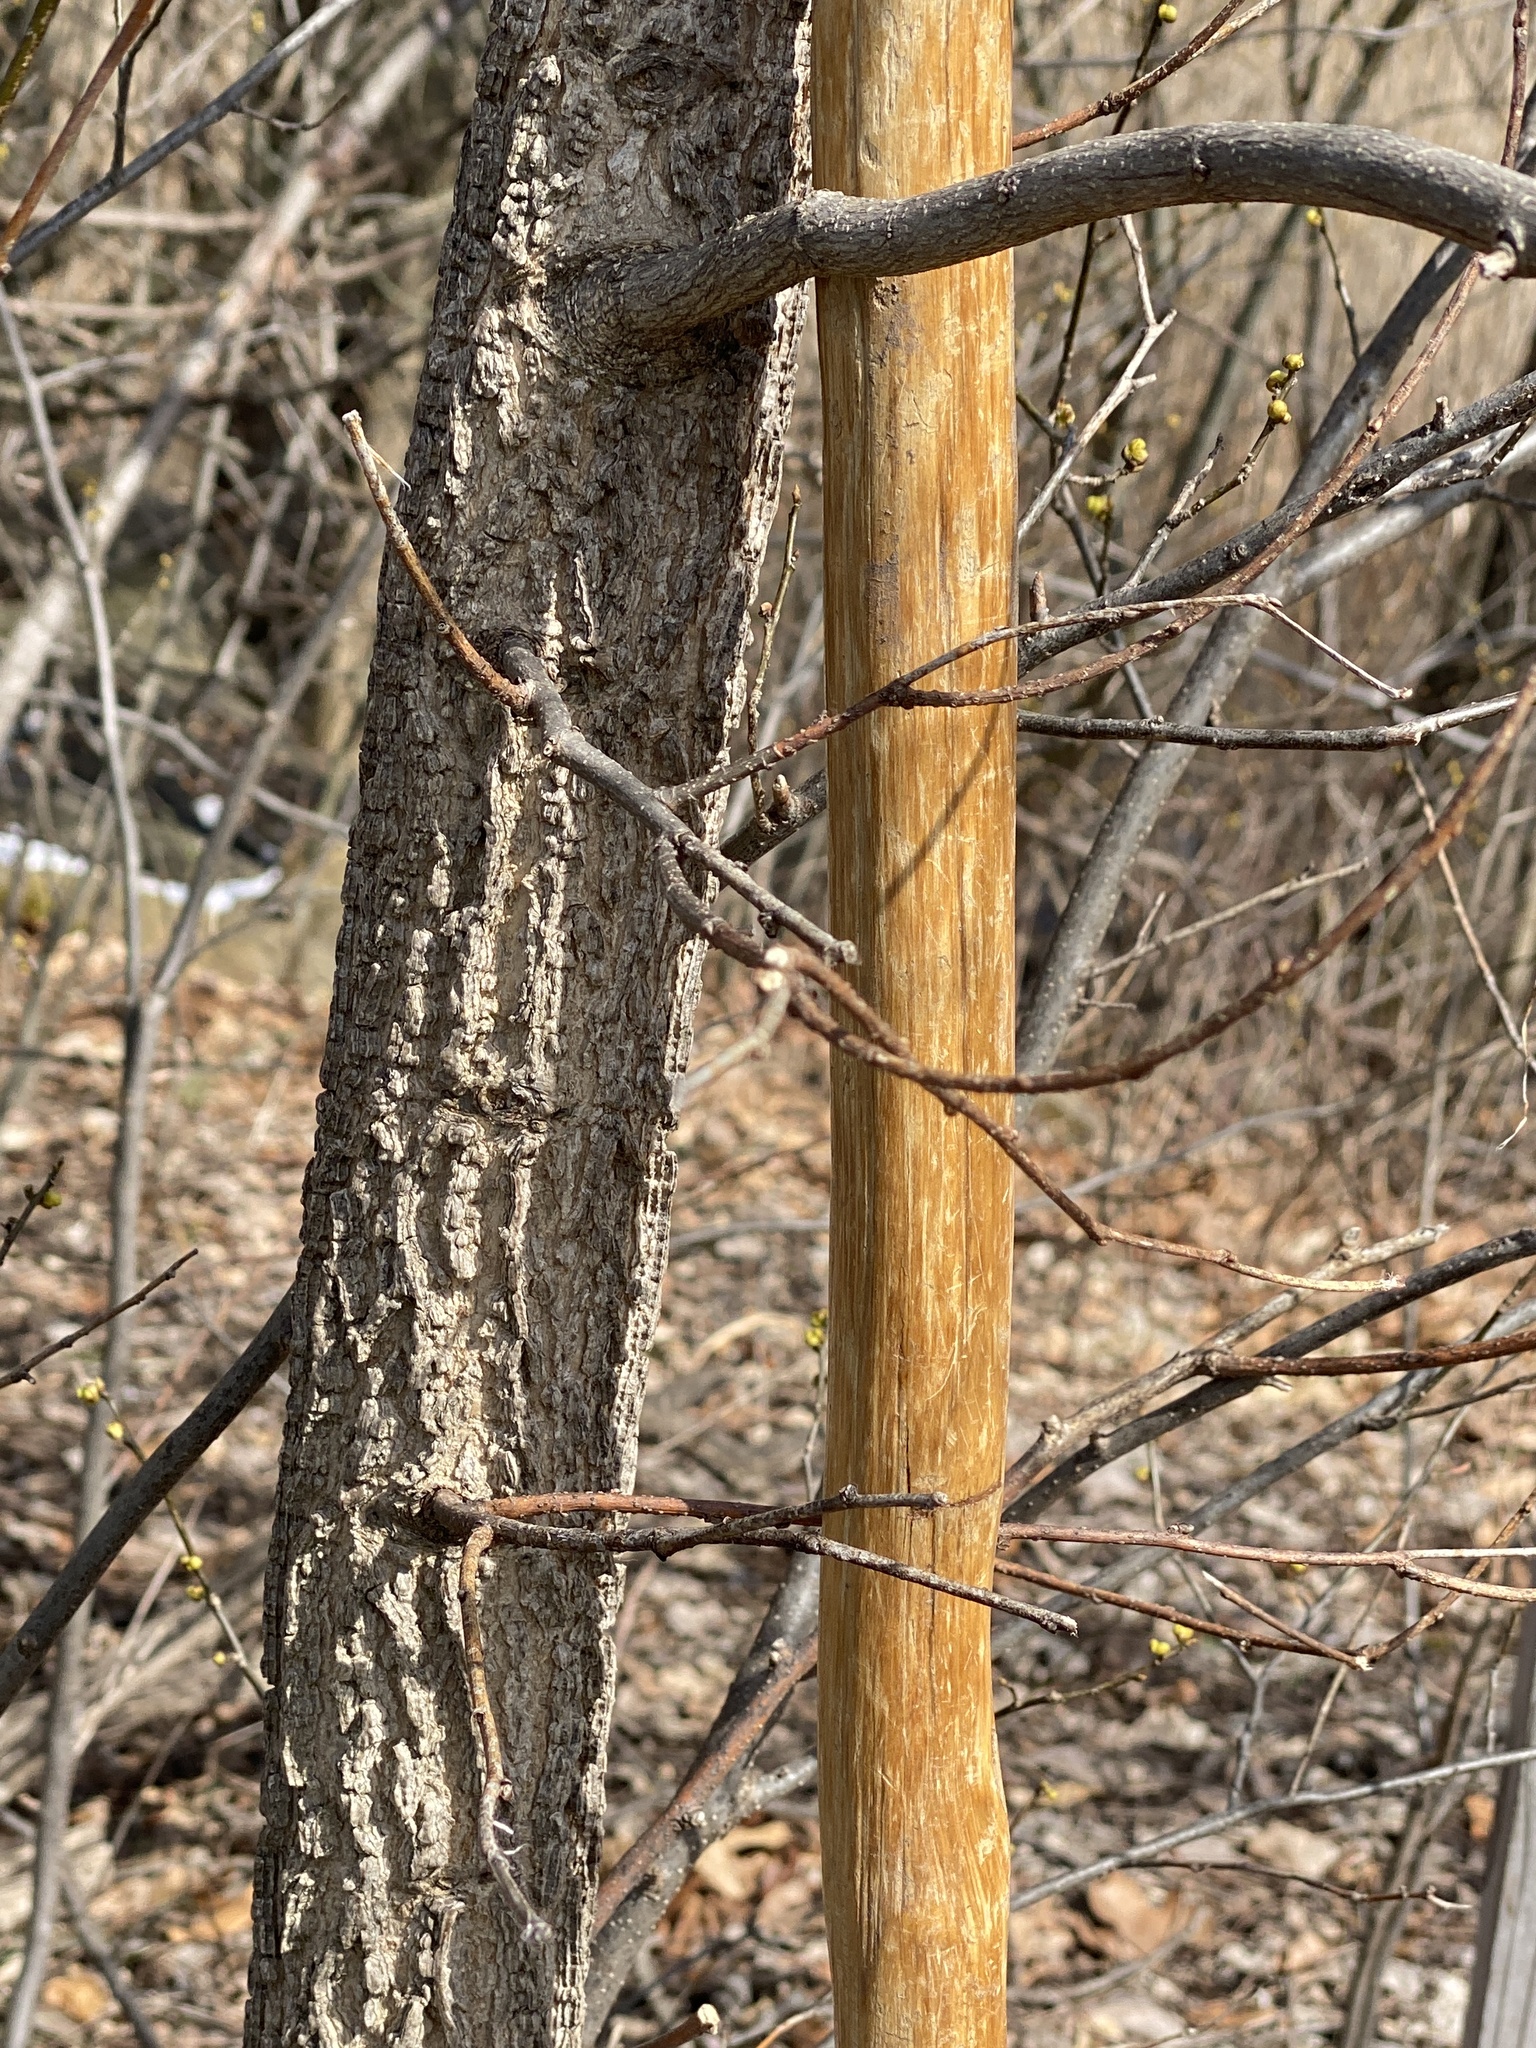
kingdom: Plantae
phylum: Tracheophyta
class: Magnoliopsida
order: Rosales
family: Cannabaceae
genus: Celtis
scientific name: Celtis occidentalis
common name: Common hackberry
